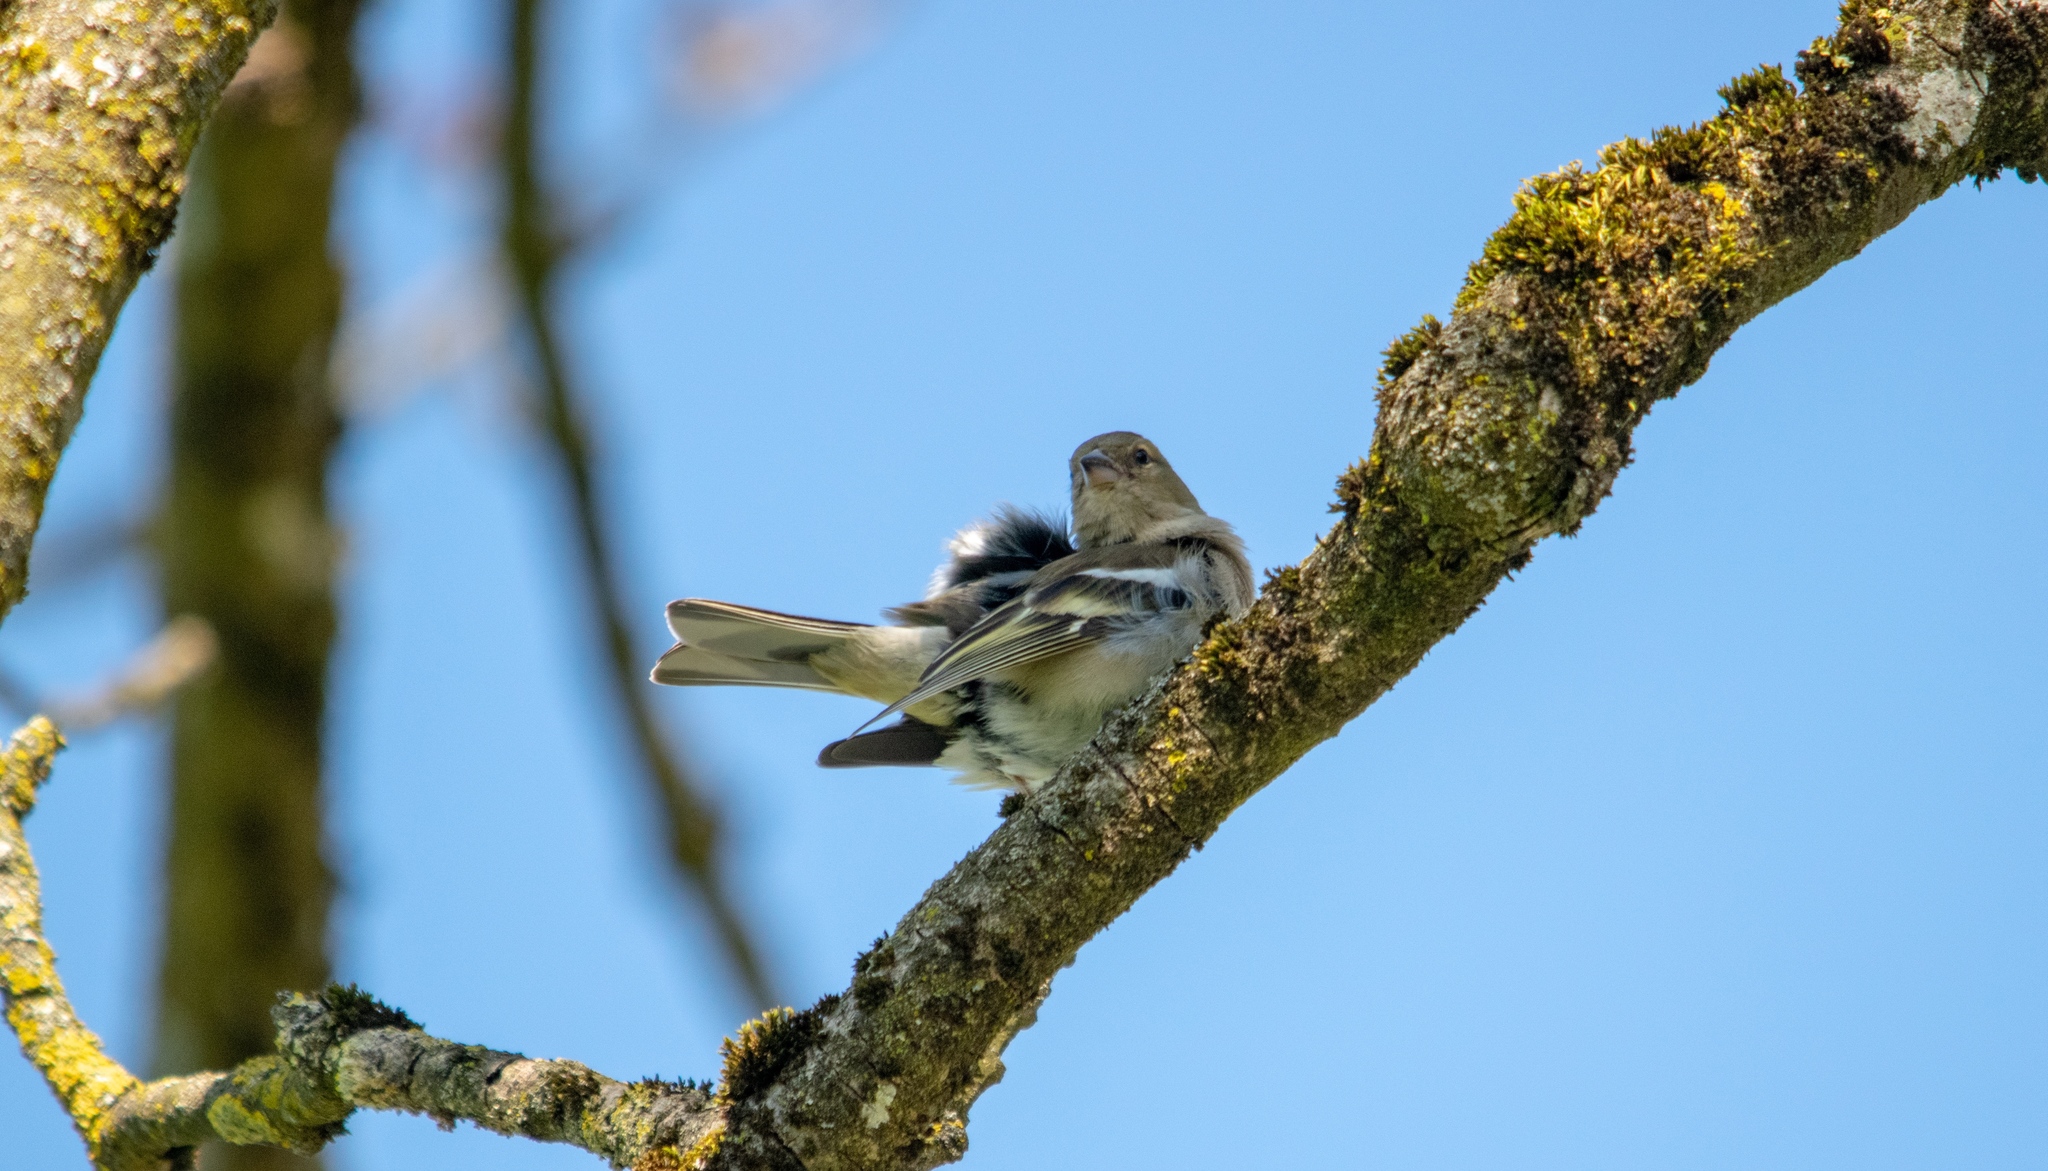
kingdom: Animalia
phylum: Chordata
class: Aves
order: Passeriformes
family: Fringillidae
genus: Fringilla
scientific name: Fringilla coelebs
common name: Common chaffinch
